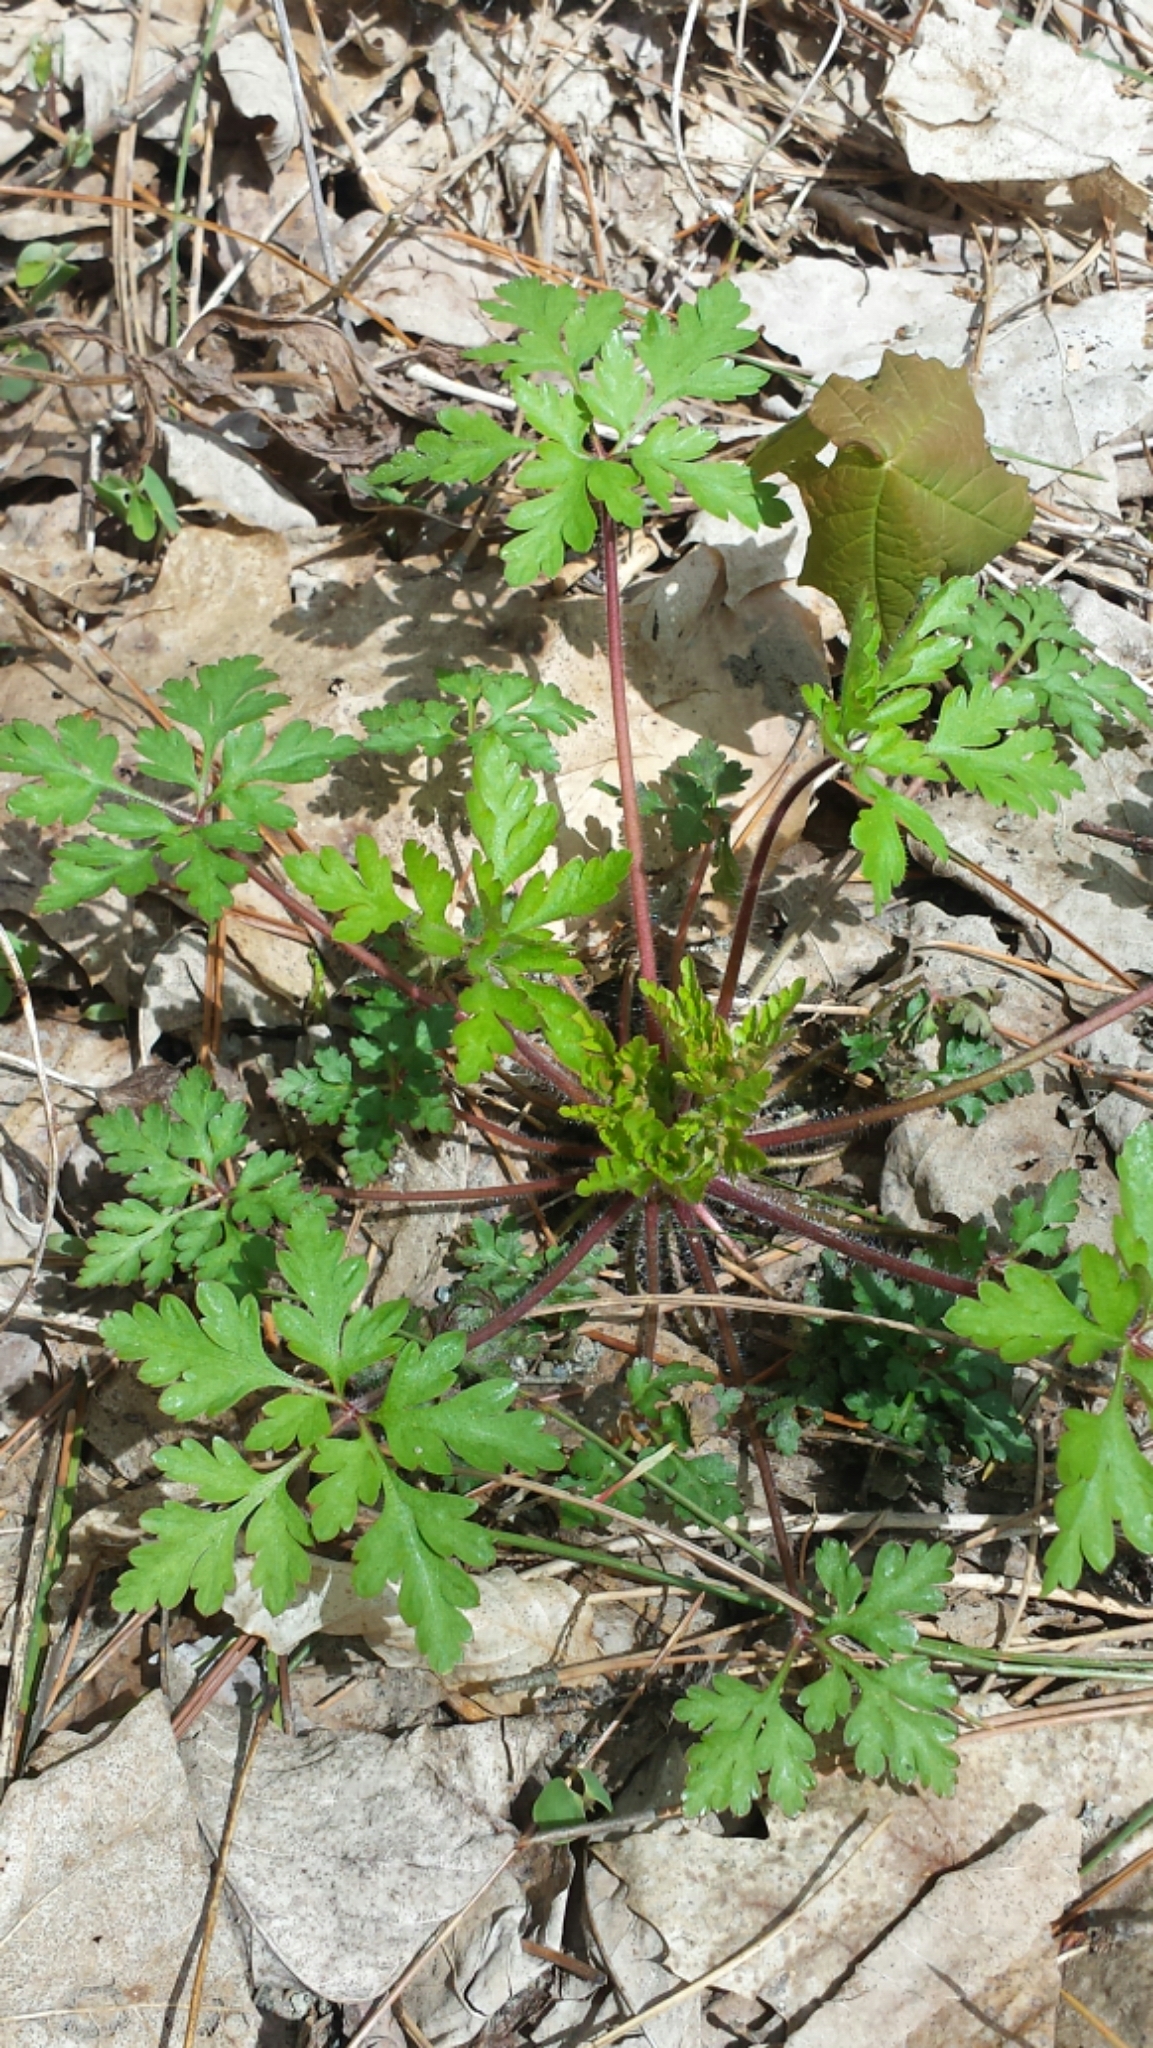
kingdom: Plantae
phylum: Tracheophyta
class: Magnoliopsida
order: Geraniales
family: Geraniaceae
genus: Geranium
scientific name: Geranium robertianum
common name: Herb-robert
